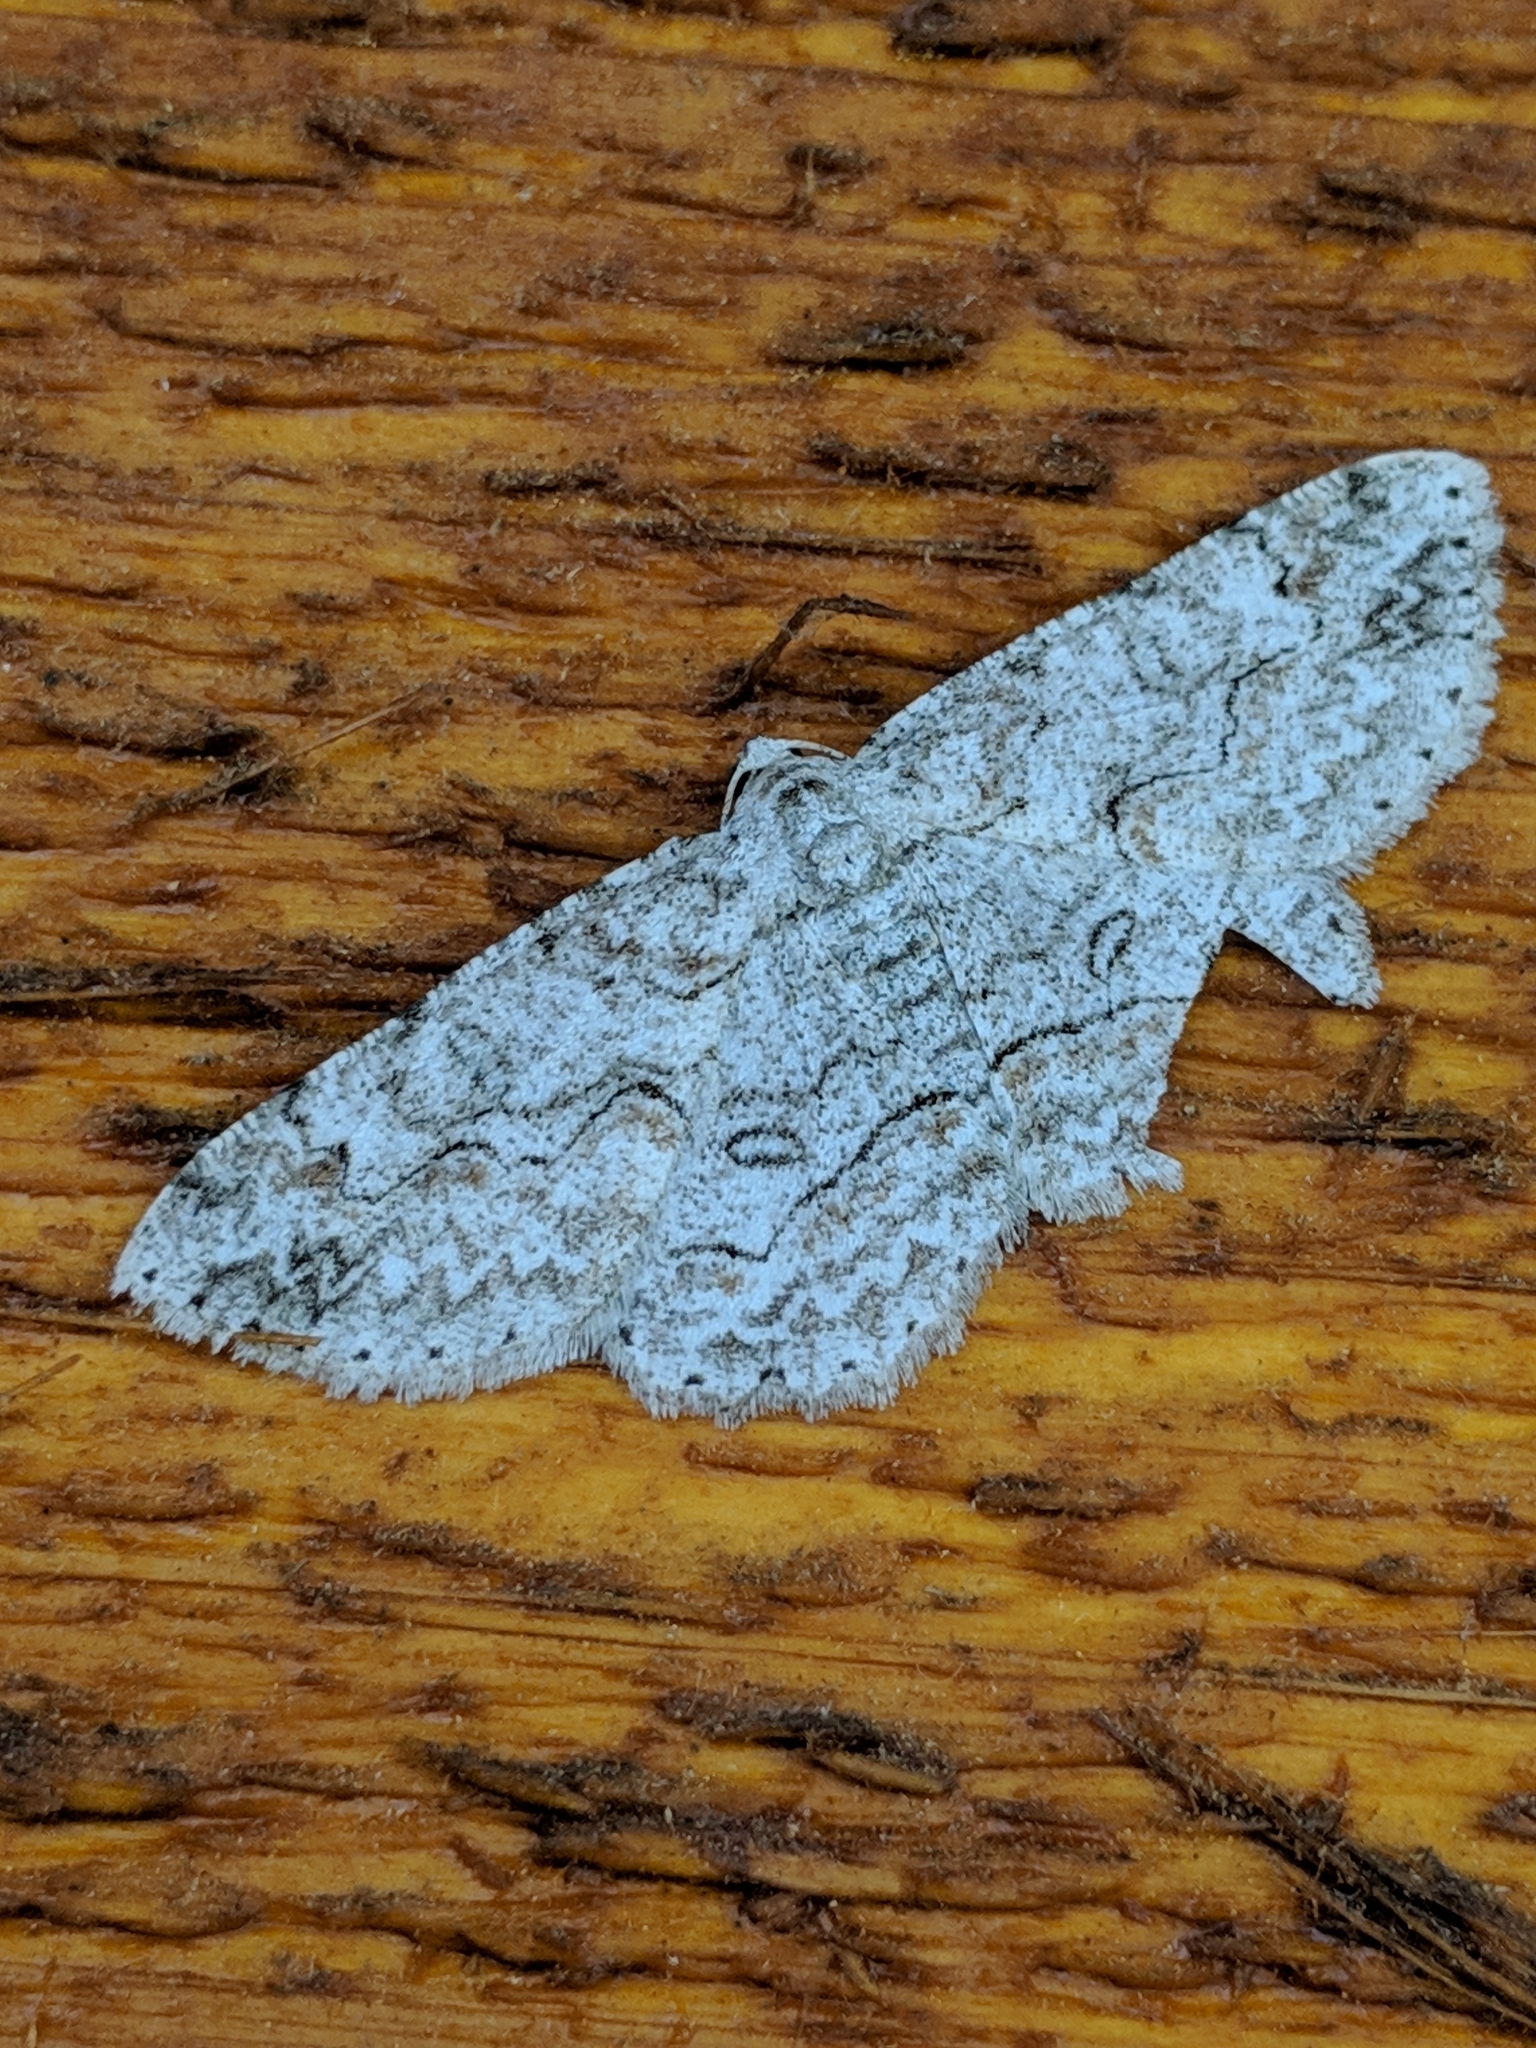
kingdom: Animalia
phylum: Arthropoda
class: Insecta
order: Lepidoptera
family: Geometridae
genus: Iridopsis
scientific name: Iridopsis defectaria
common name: Brown-shaded gray
